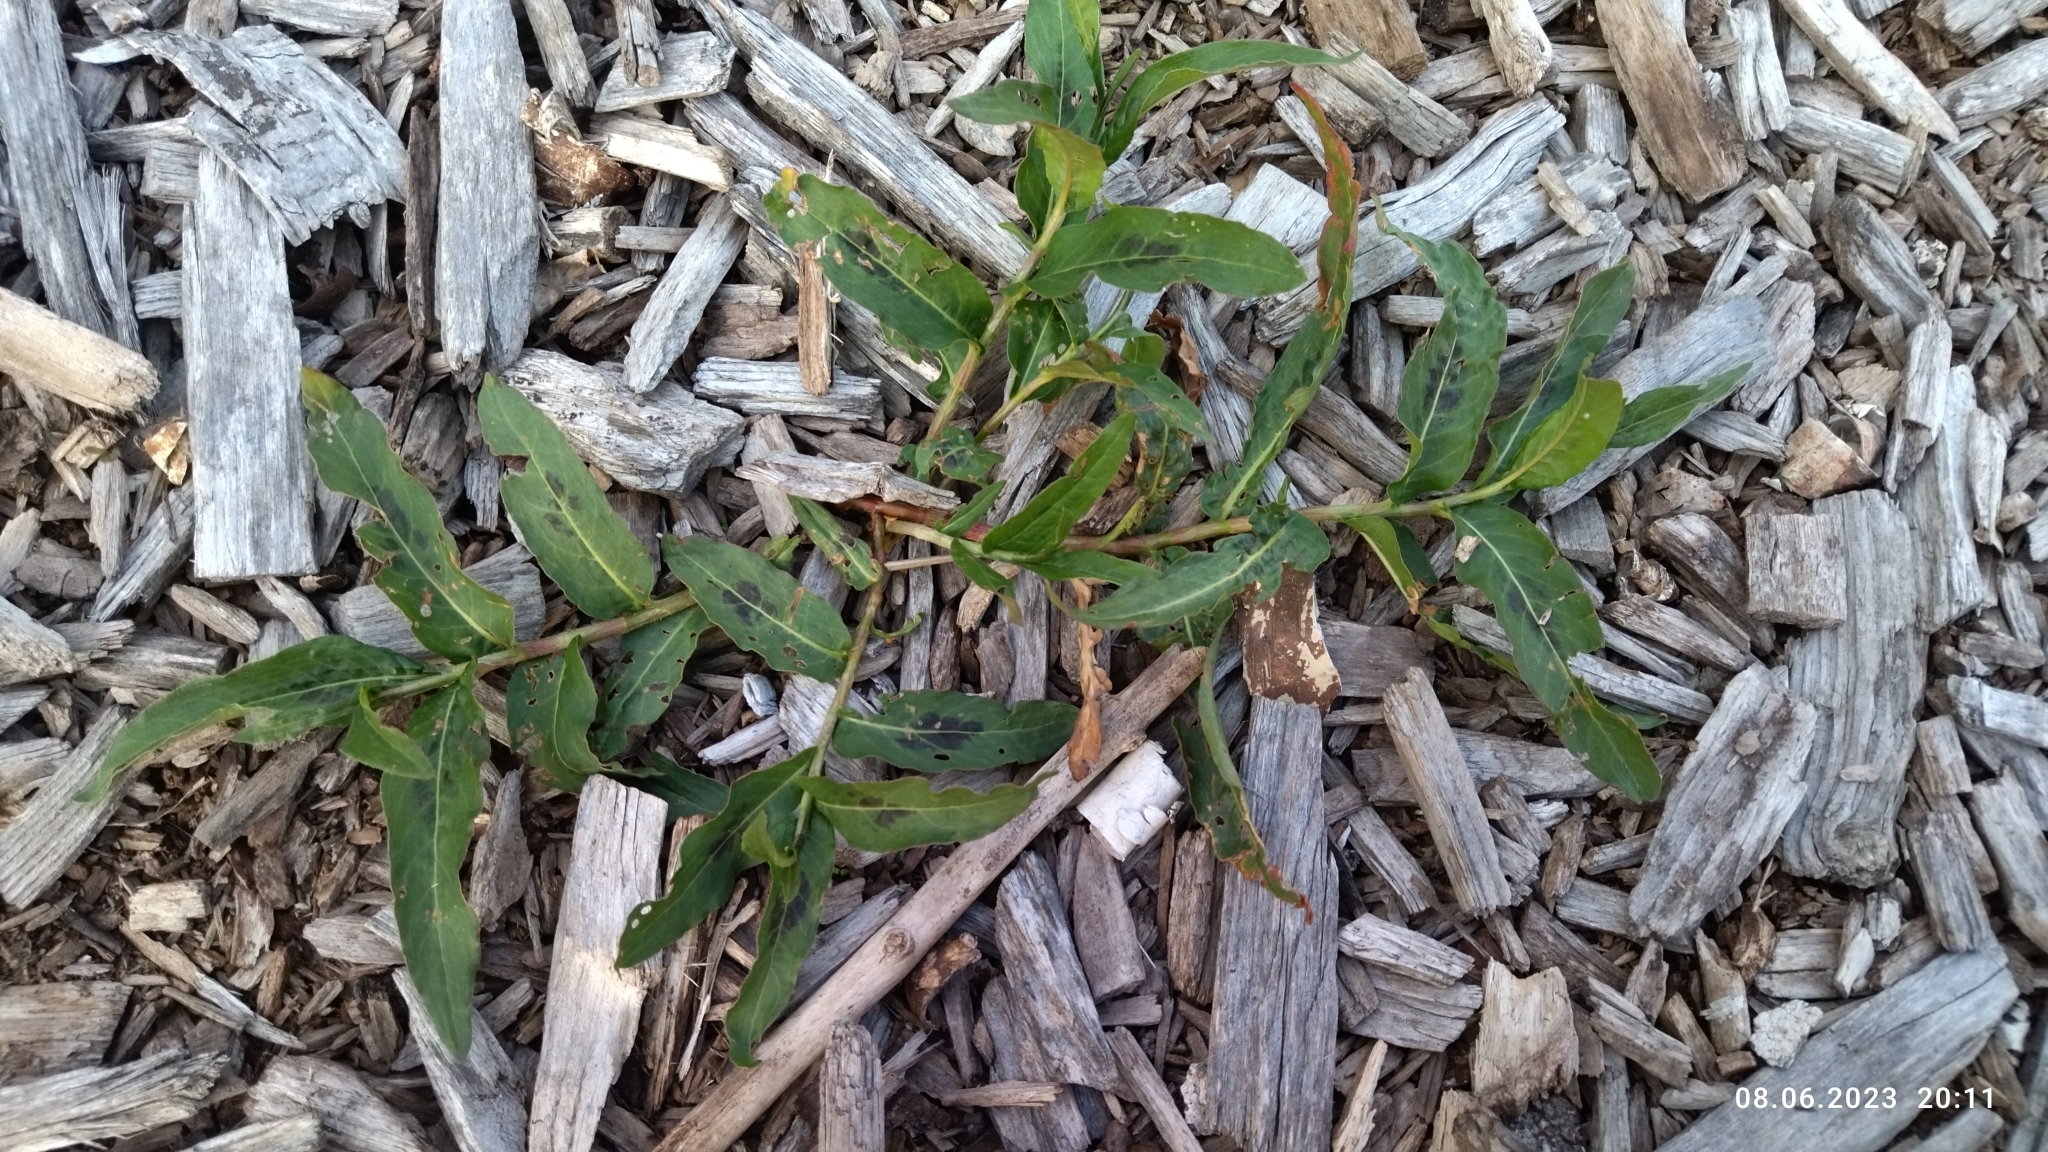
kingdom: Plantae
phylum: Tracheophyta
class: Magnoliopsida
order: Caryophyllales
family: Polygonaceae
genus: Persicaria
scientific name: Persicaria amphibia
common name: Amphibious bistort
